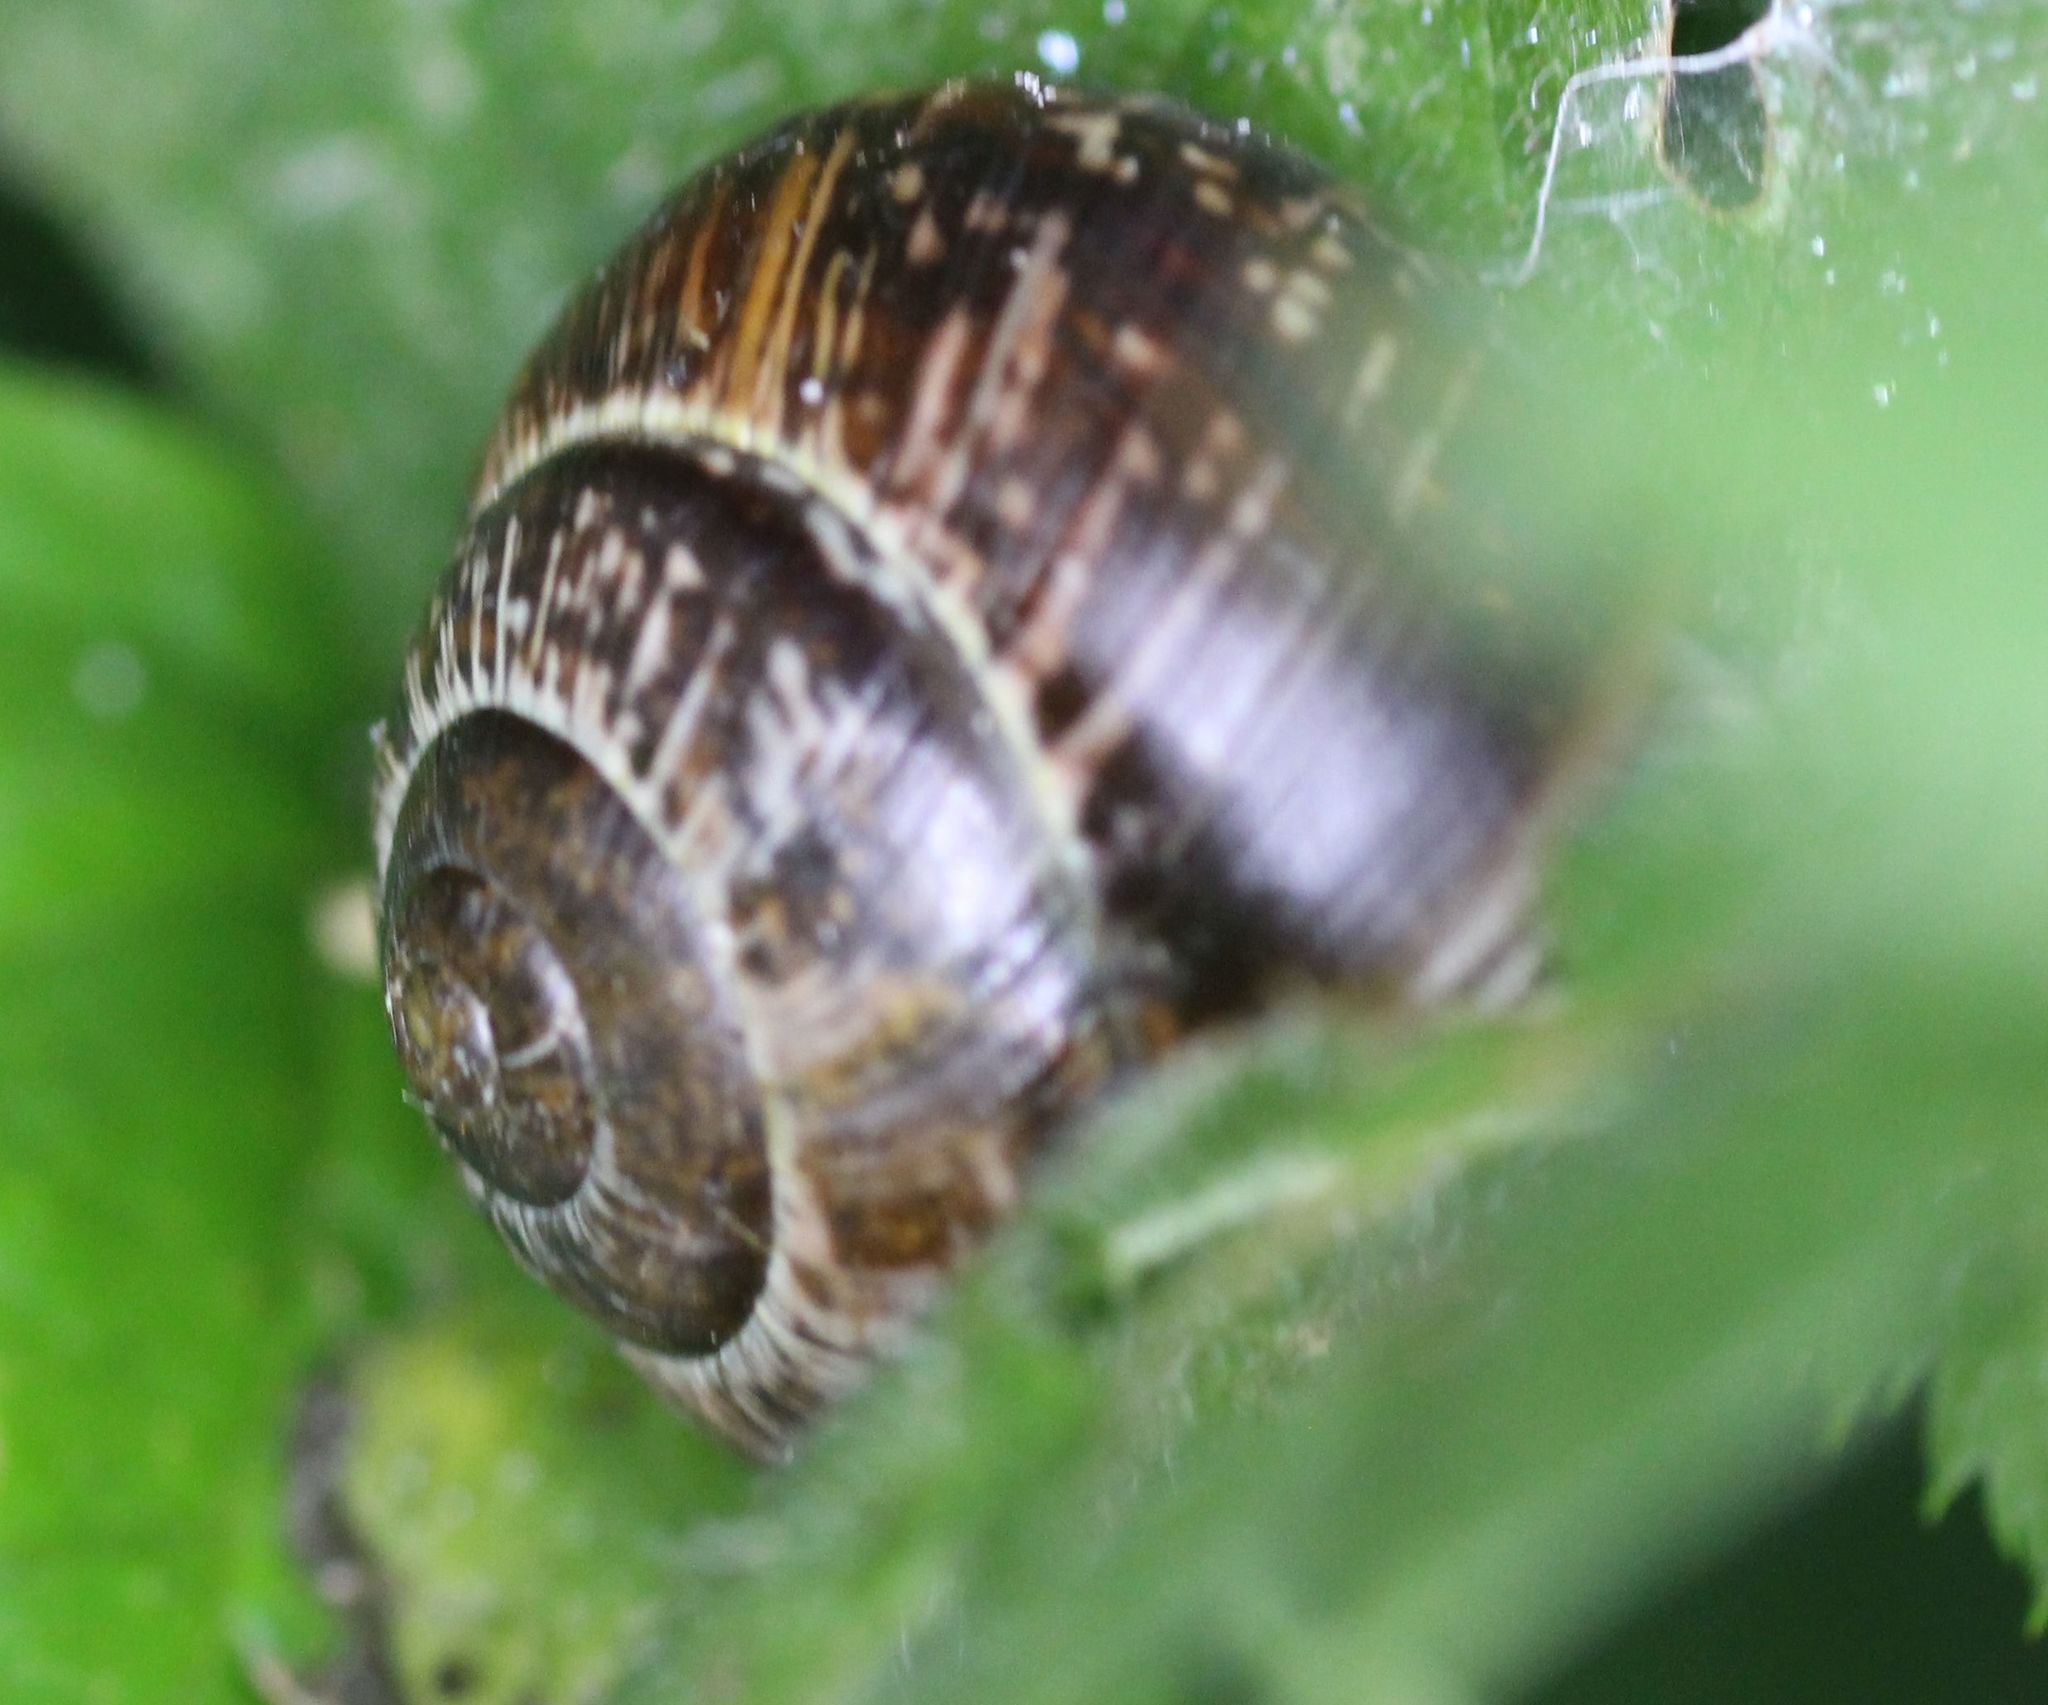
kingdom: Animalia
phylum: Mollusca
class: Gastropoda
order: Stylommatophora
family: Helicidae
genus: Arianta
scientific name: Arianta arbustorum
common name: Copse snail
